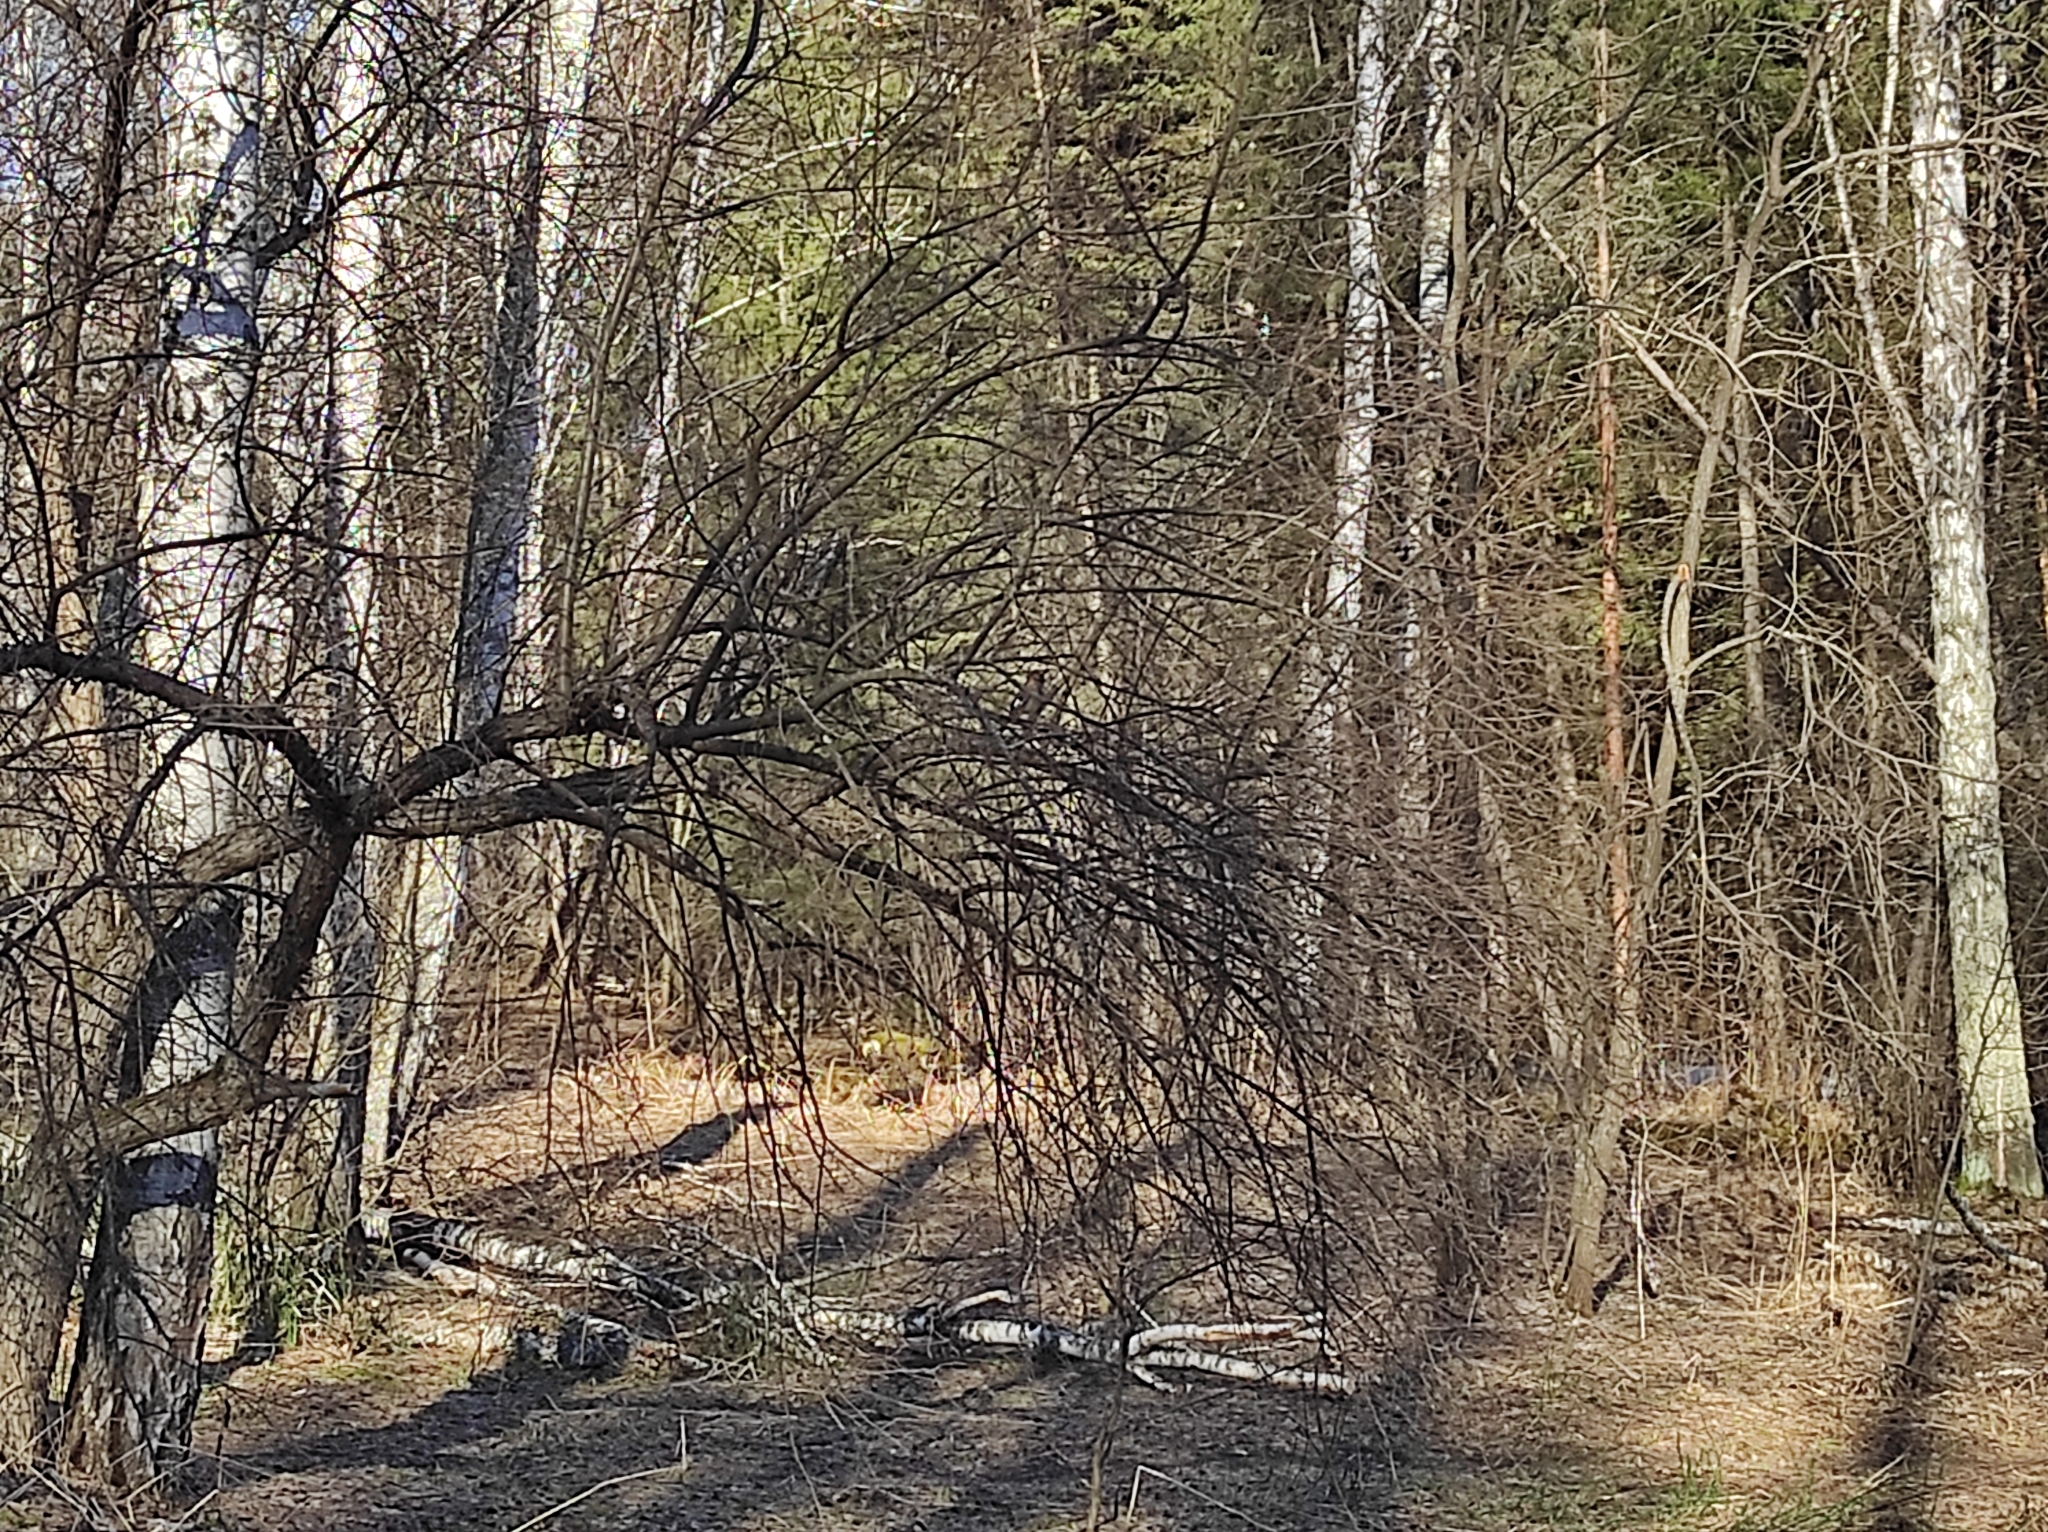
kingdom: Animalia
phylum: Chordata
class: Aves
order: Passeriformes
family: Corvidae
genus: Garrulus
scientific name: Garrulus glandarius
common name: Eurasian jay
